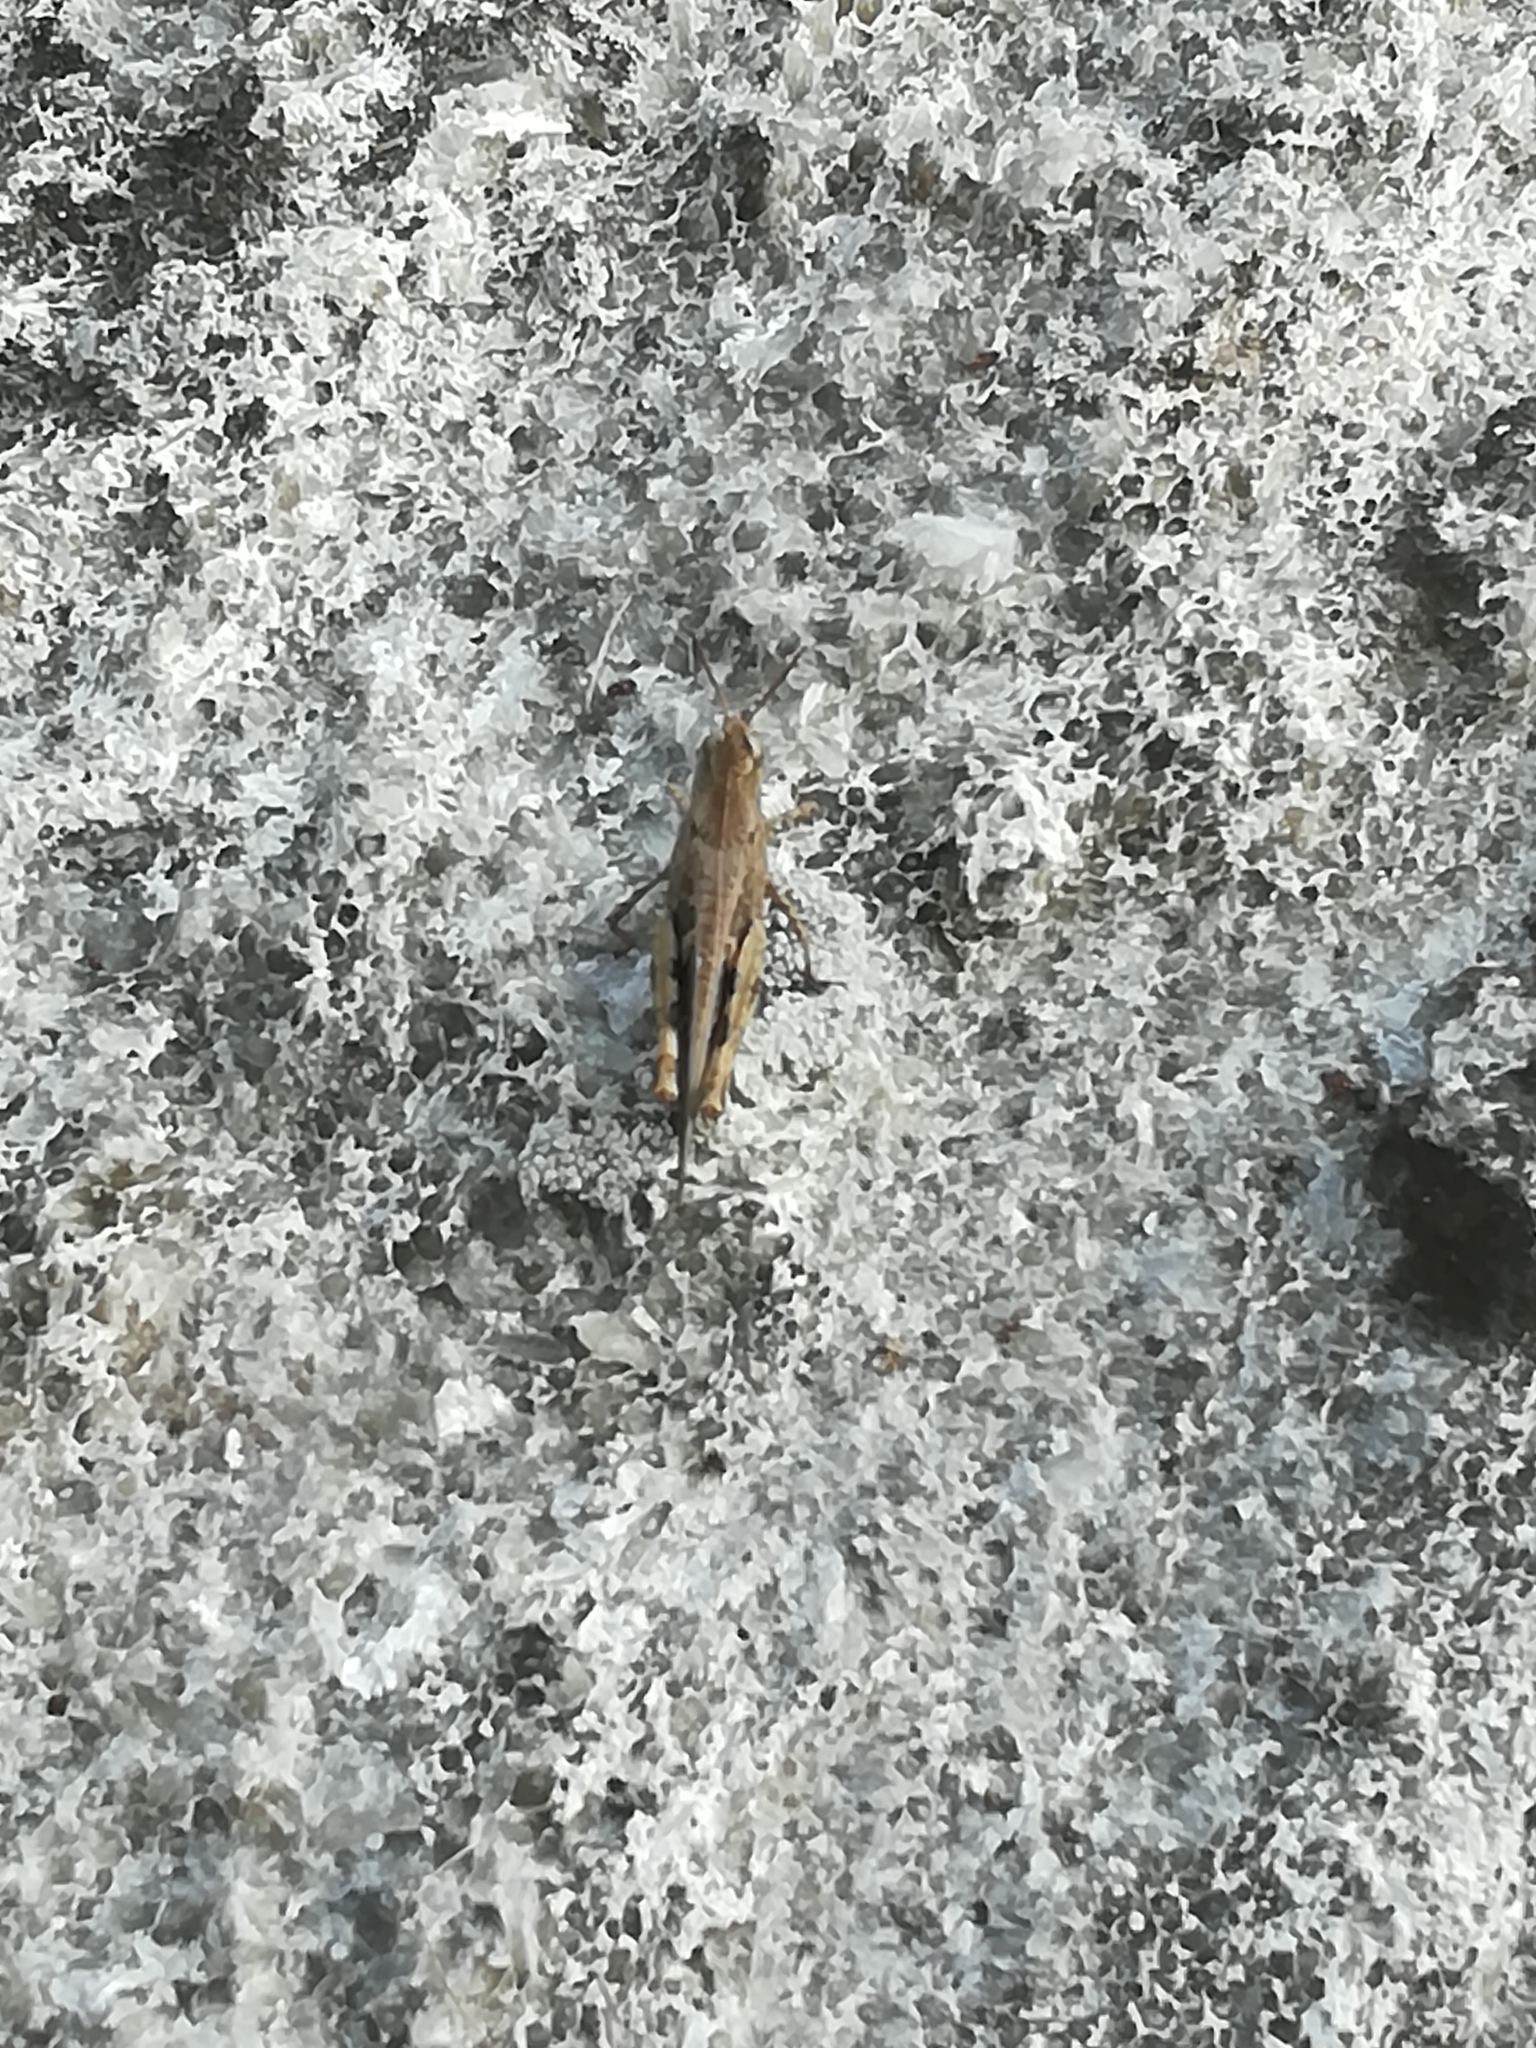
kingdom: Animalia
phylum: Arthropoda
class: Insecta
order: Orthoptera
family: Acrididae
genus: Aiolopus
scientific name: Aiolopus strepens
